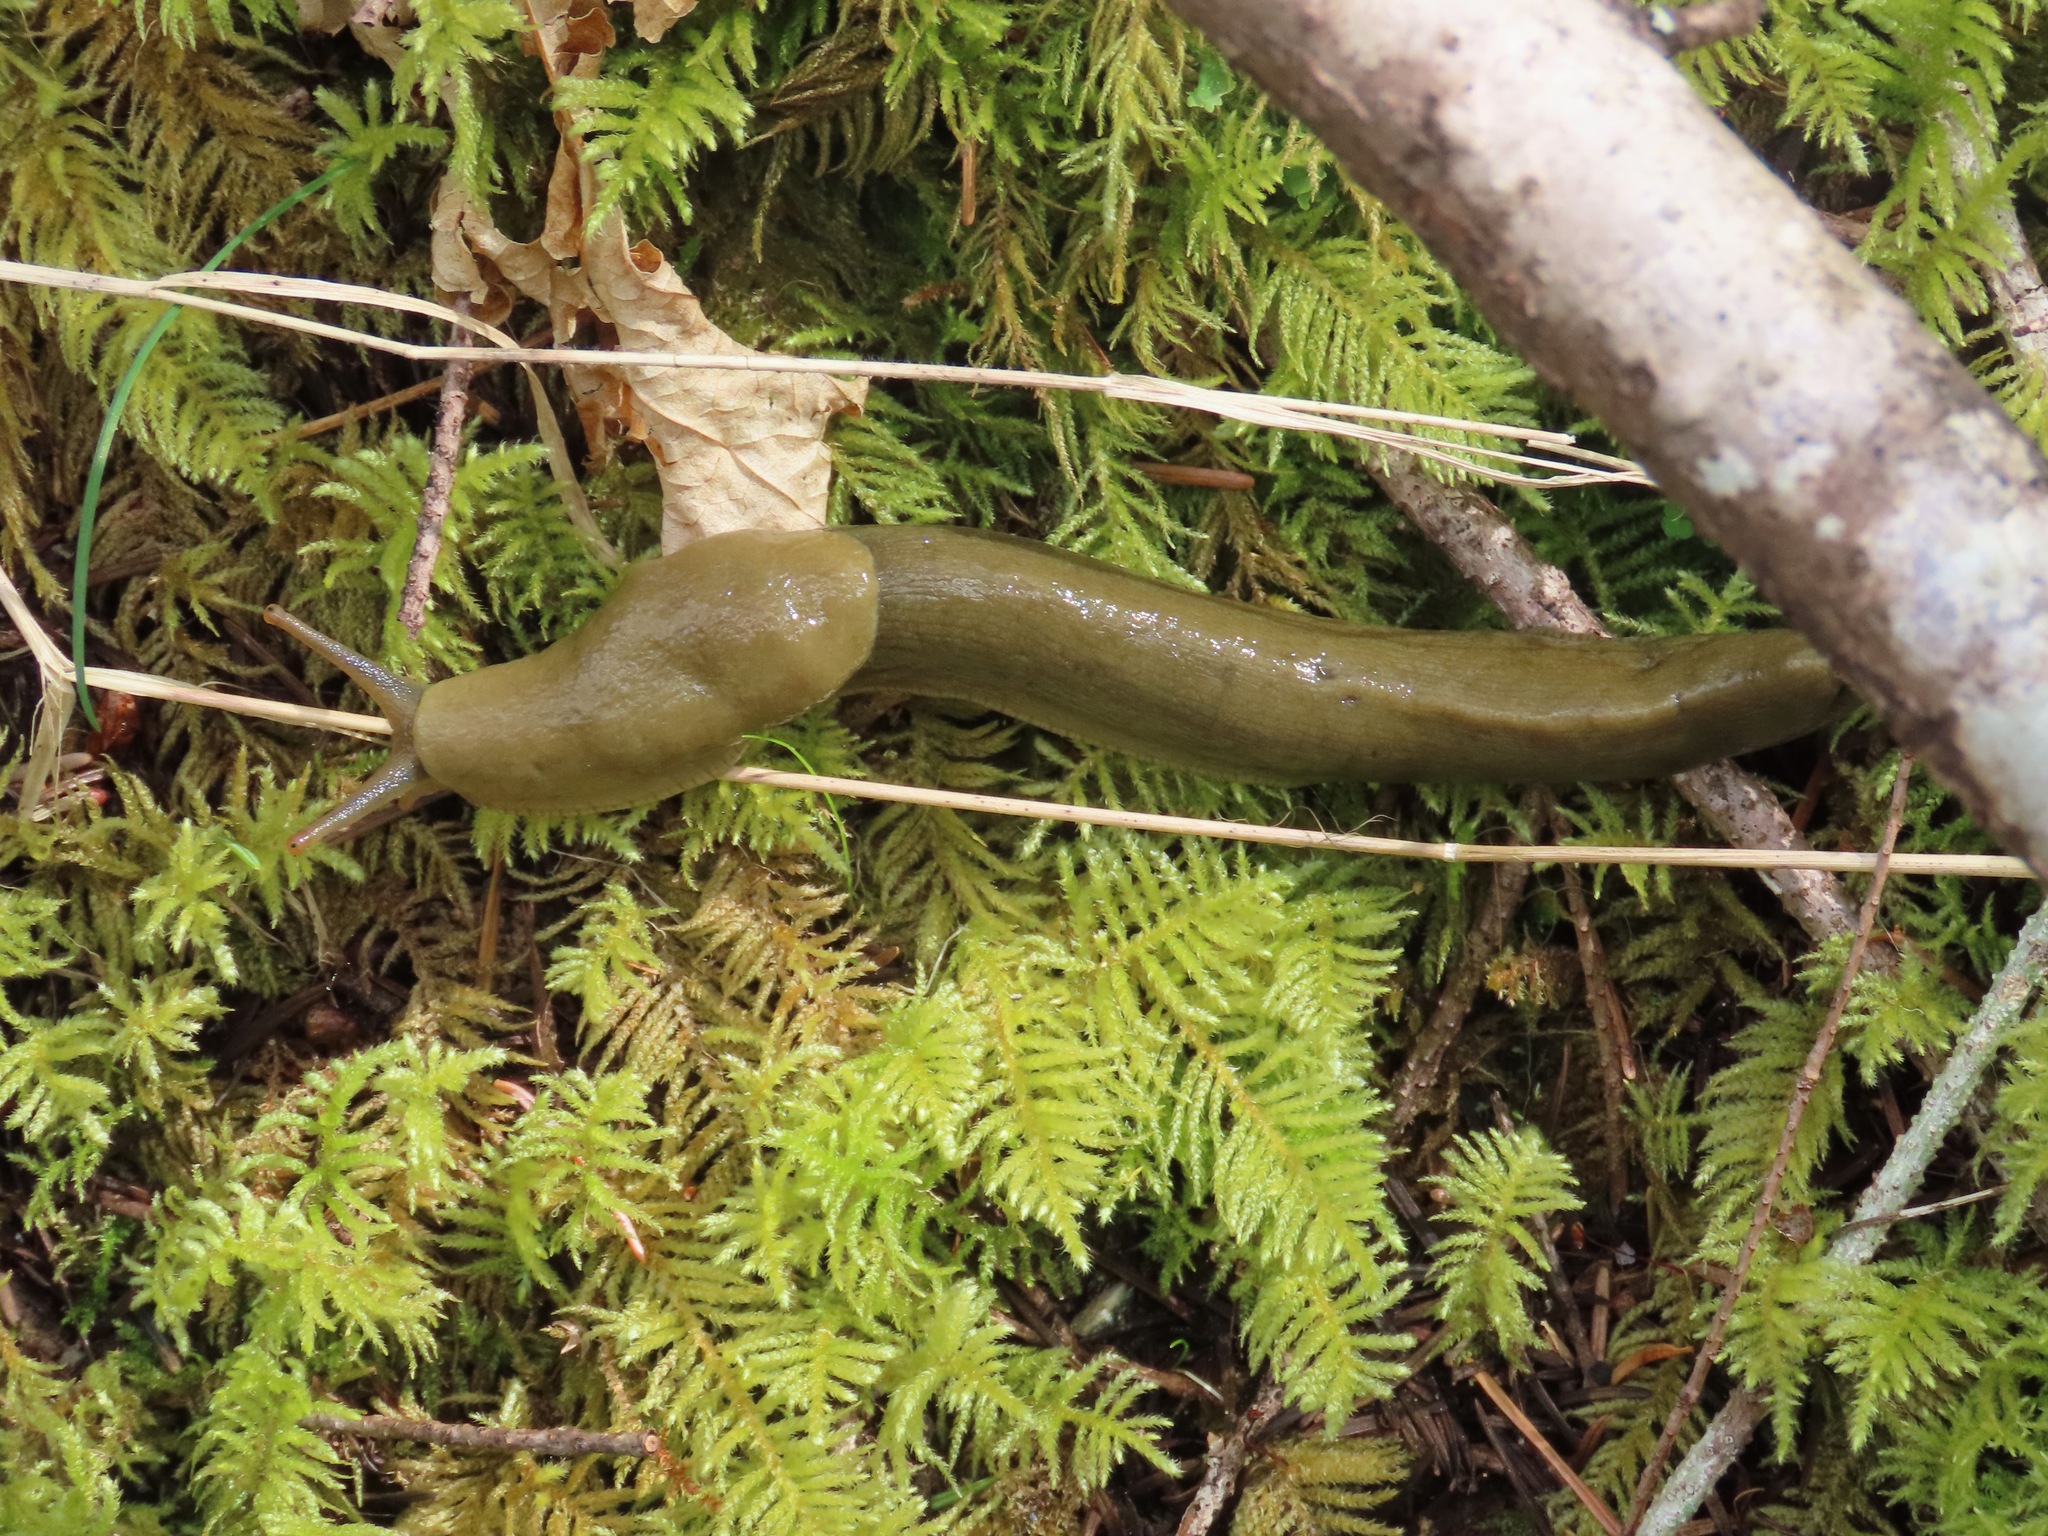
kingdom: Animalia
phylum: Mollusca
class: Gastropoda
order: Stylommatophora
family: Ariolimacidae
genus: Ariolimax
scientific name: Ariolimax columbianus
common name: Pacific banana slug
